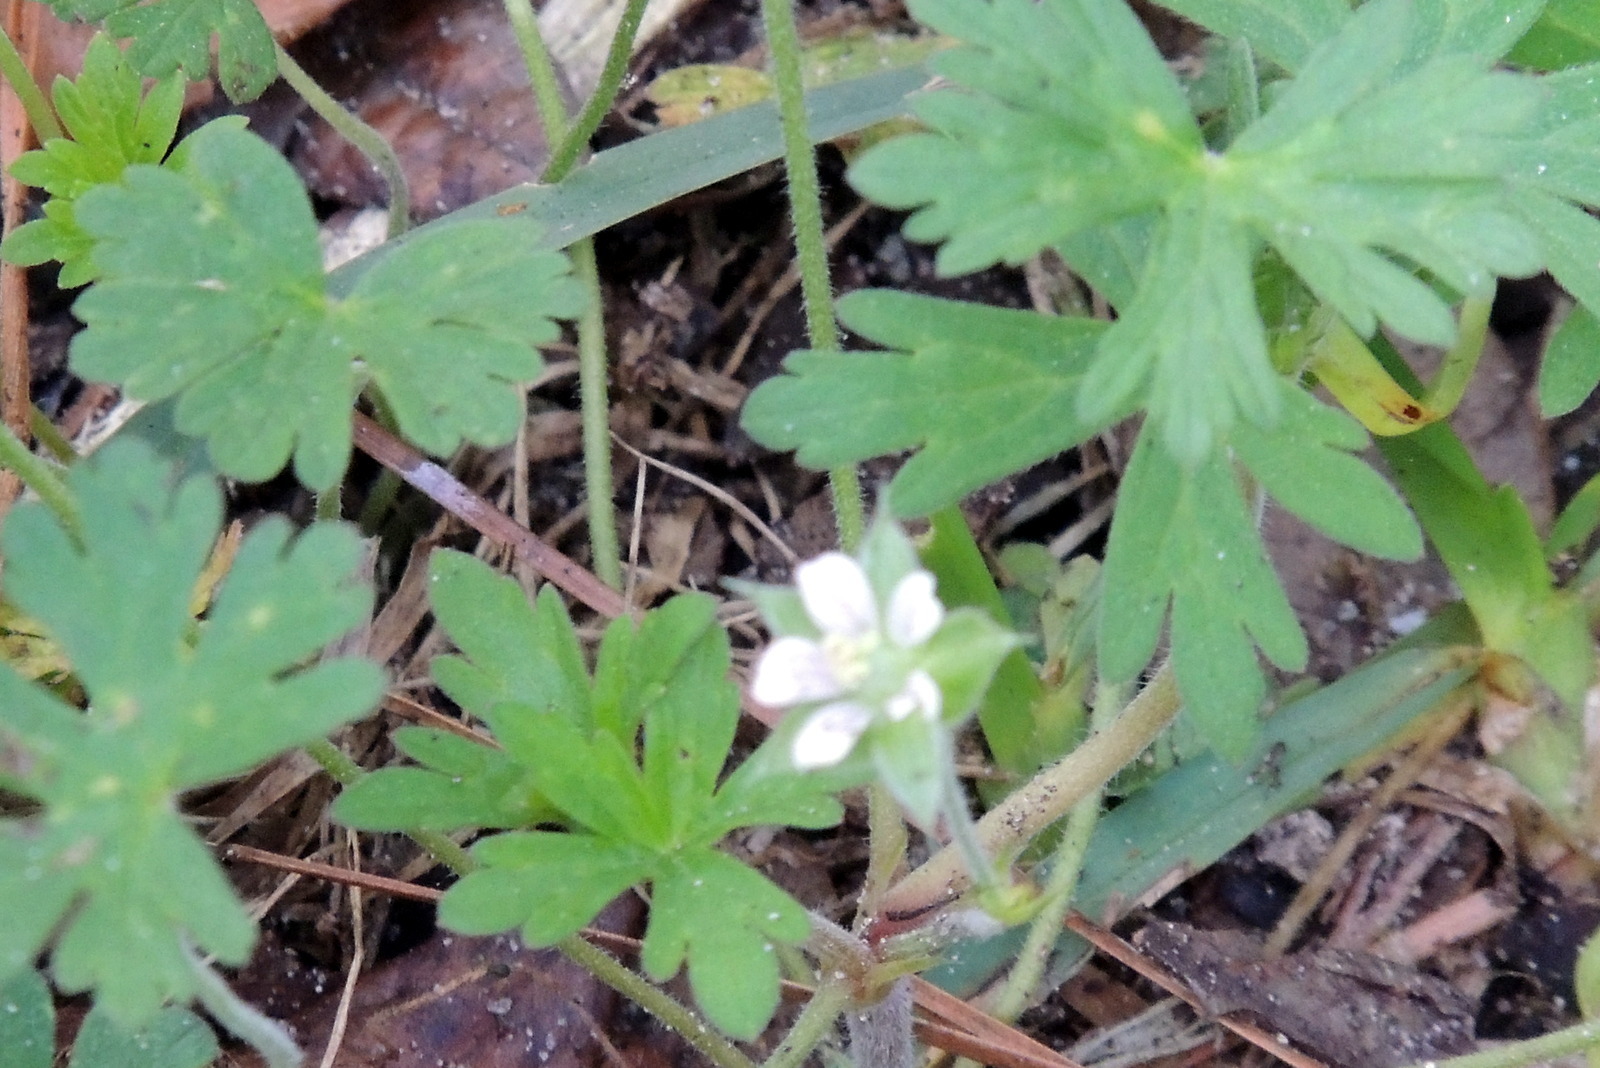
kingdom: Plantae
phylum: Tracheophyta
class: Magnoliopsida
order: Geraniales
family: Geraniaceae
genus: Geranium
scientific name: Geranium carolinianum
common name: Carolina crane's-bill
